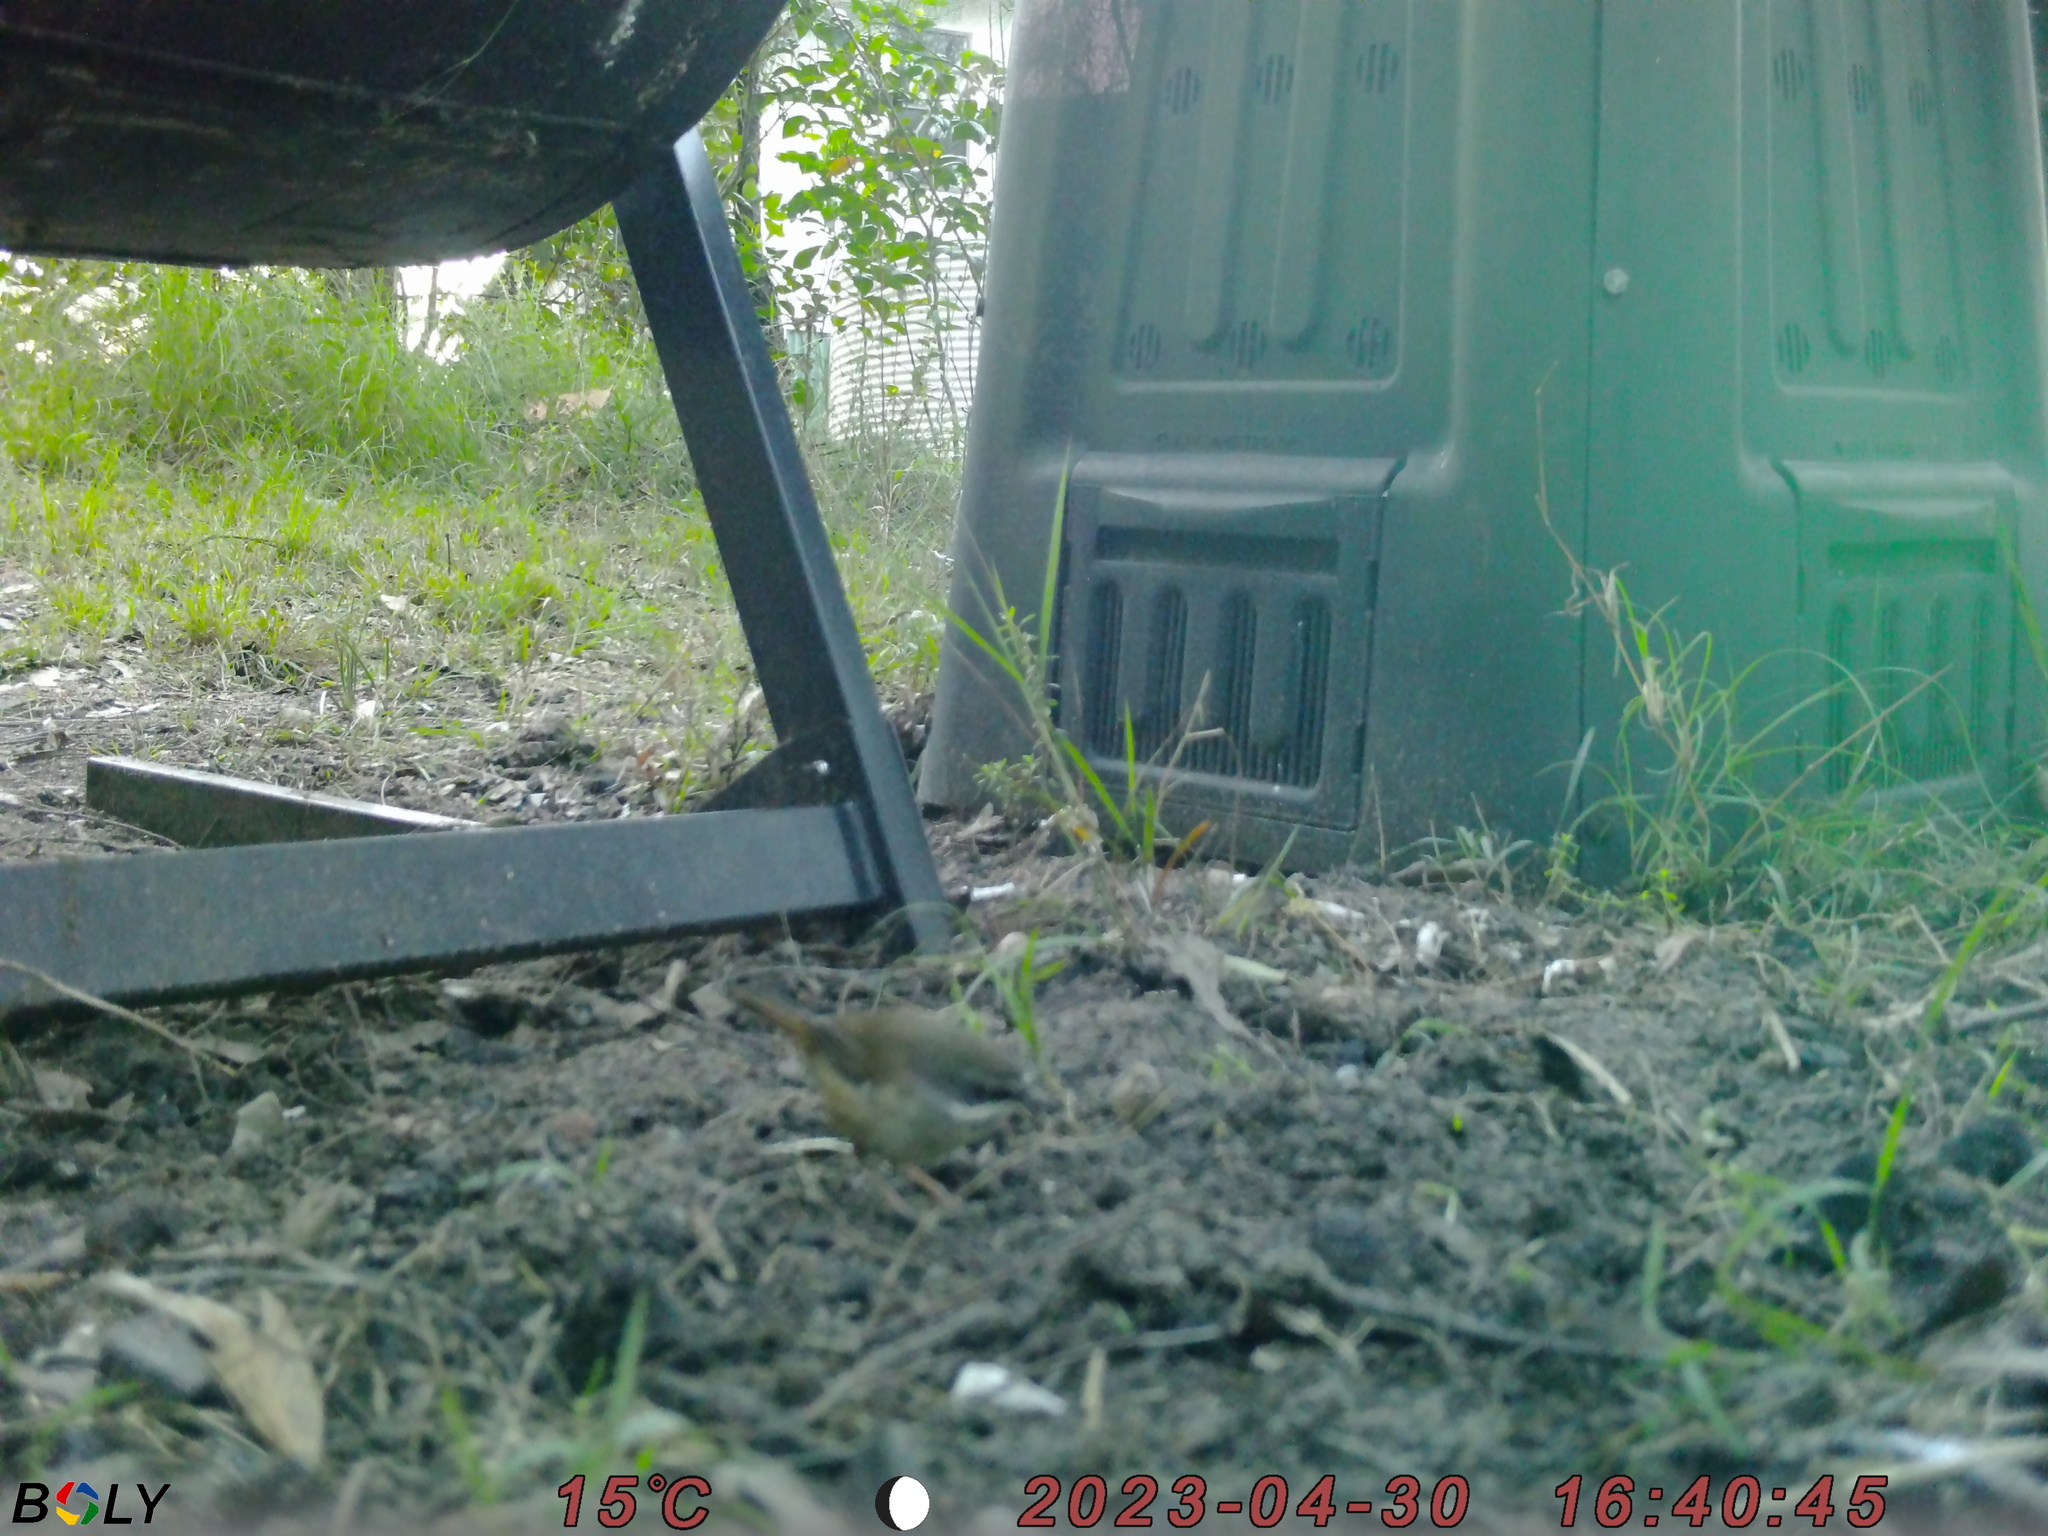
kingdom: Animalia
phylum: Chordata
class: Aves
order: Passeriformes
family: Acanthizidae
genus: Sericornis
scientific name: Sericornis frontalis
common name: White-browed scrubwren
